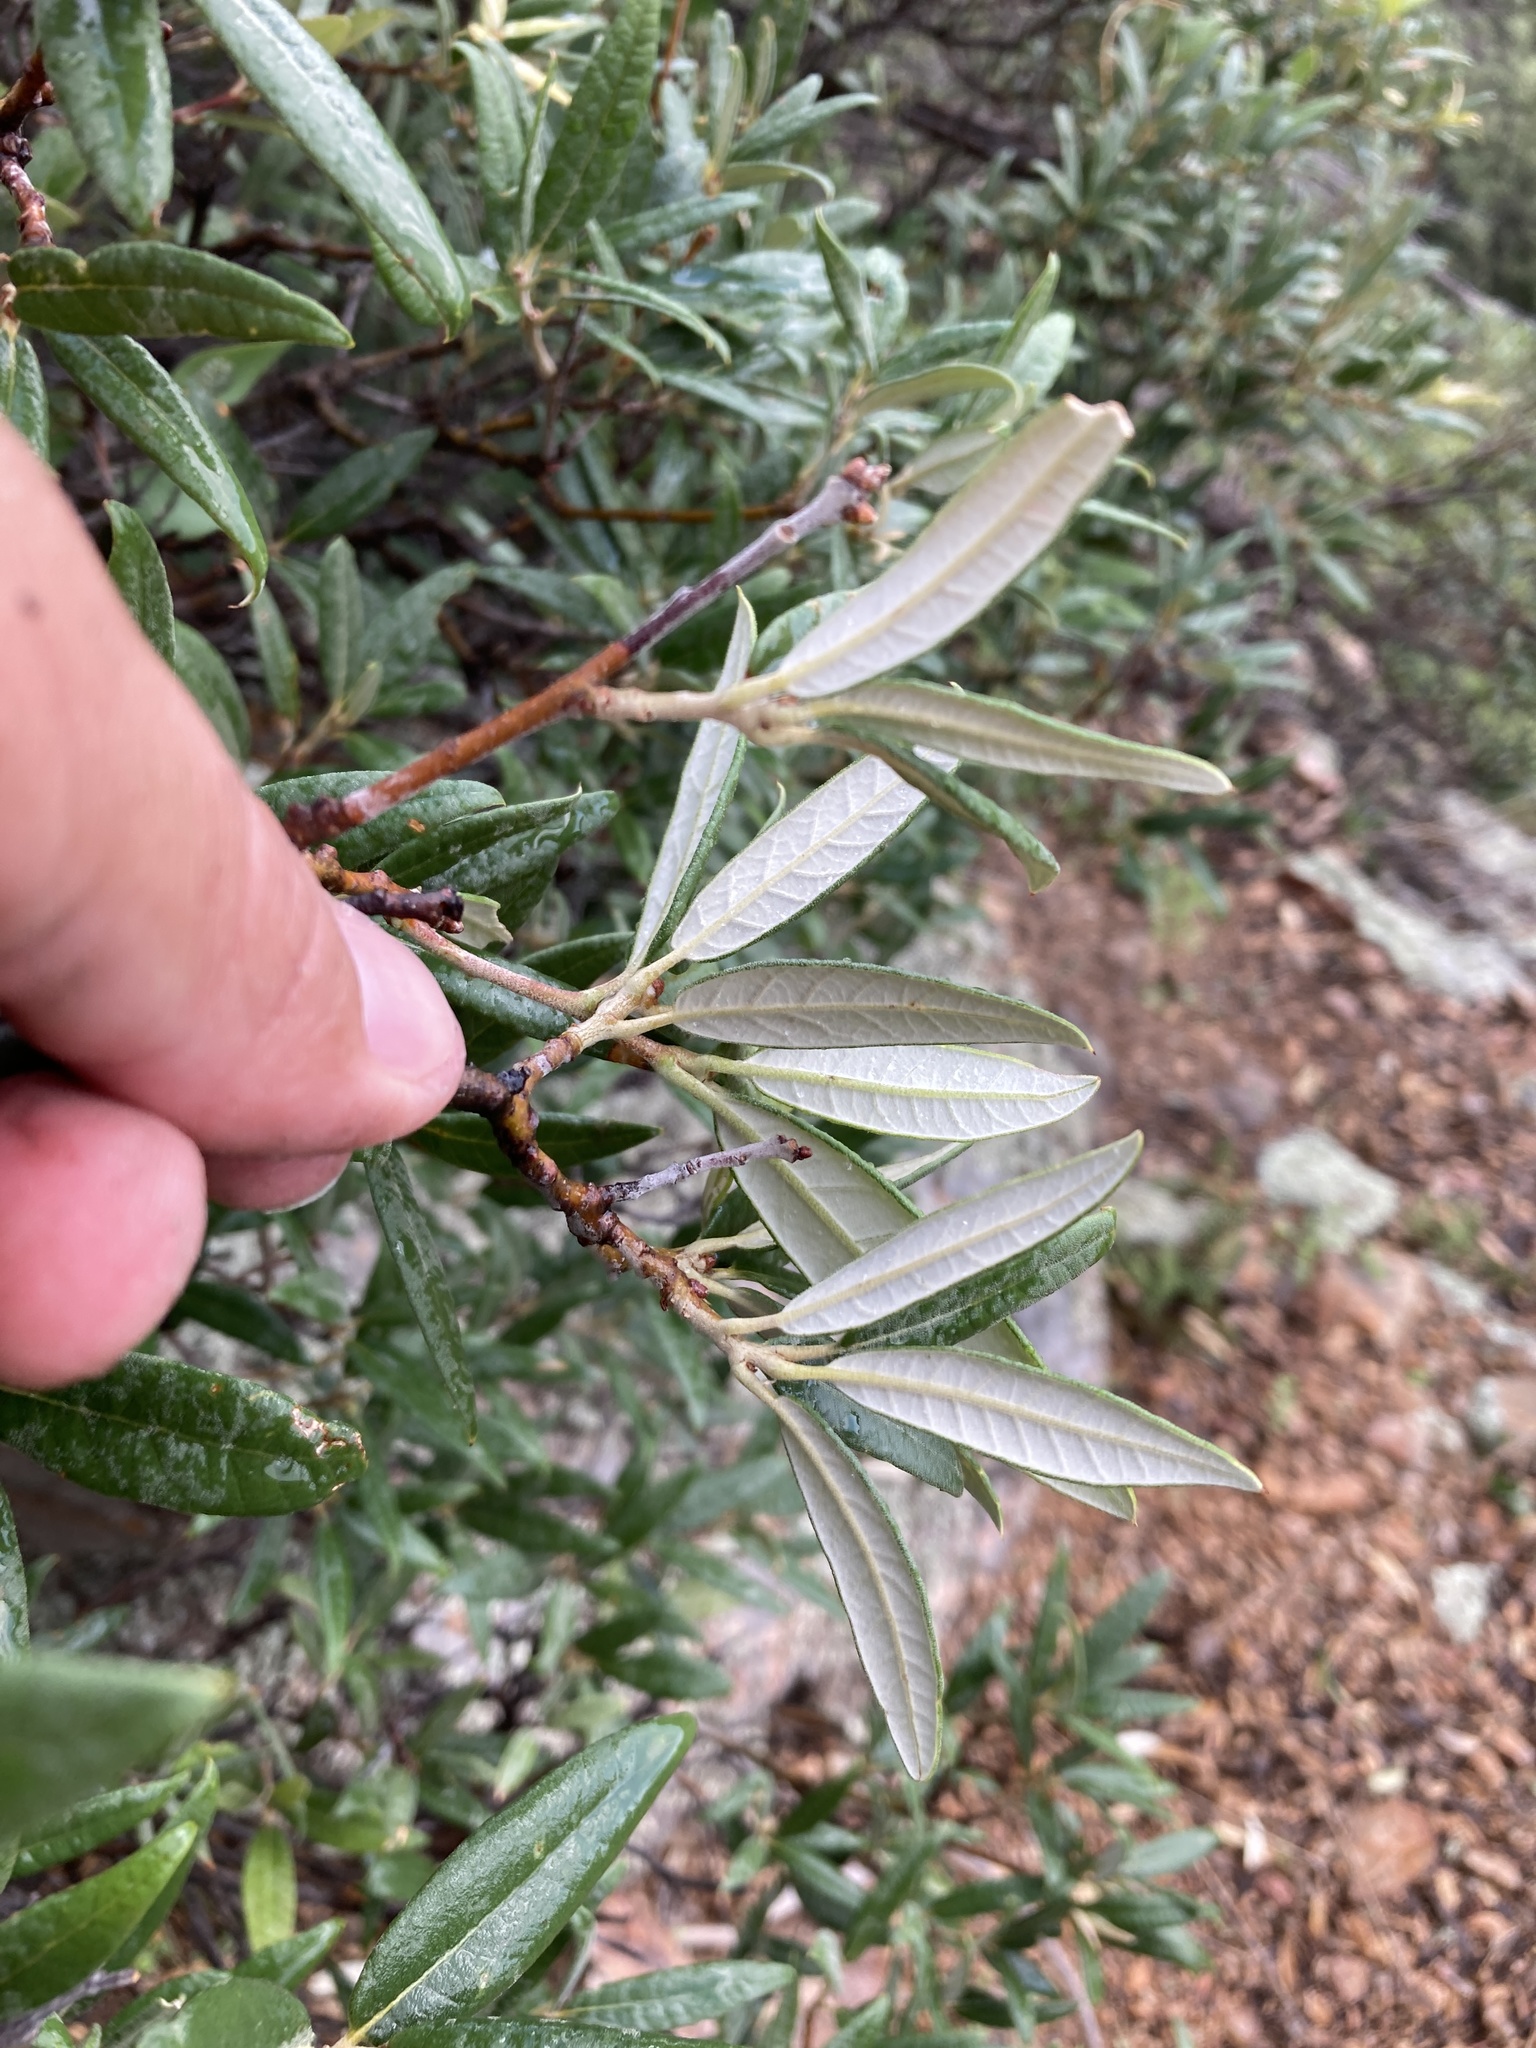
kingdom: Plantae
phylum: Tracheophyta
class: Magnoliopsida
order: Fagales
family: Fagaceae
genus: Quercus
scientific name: Quercus hypoleucoides
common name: Silverleaf oak
